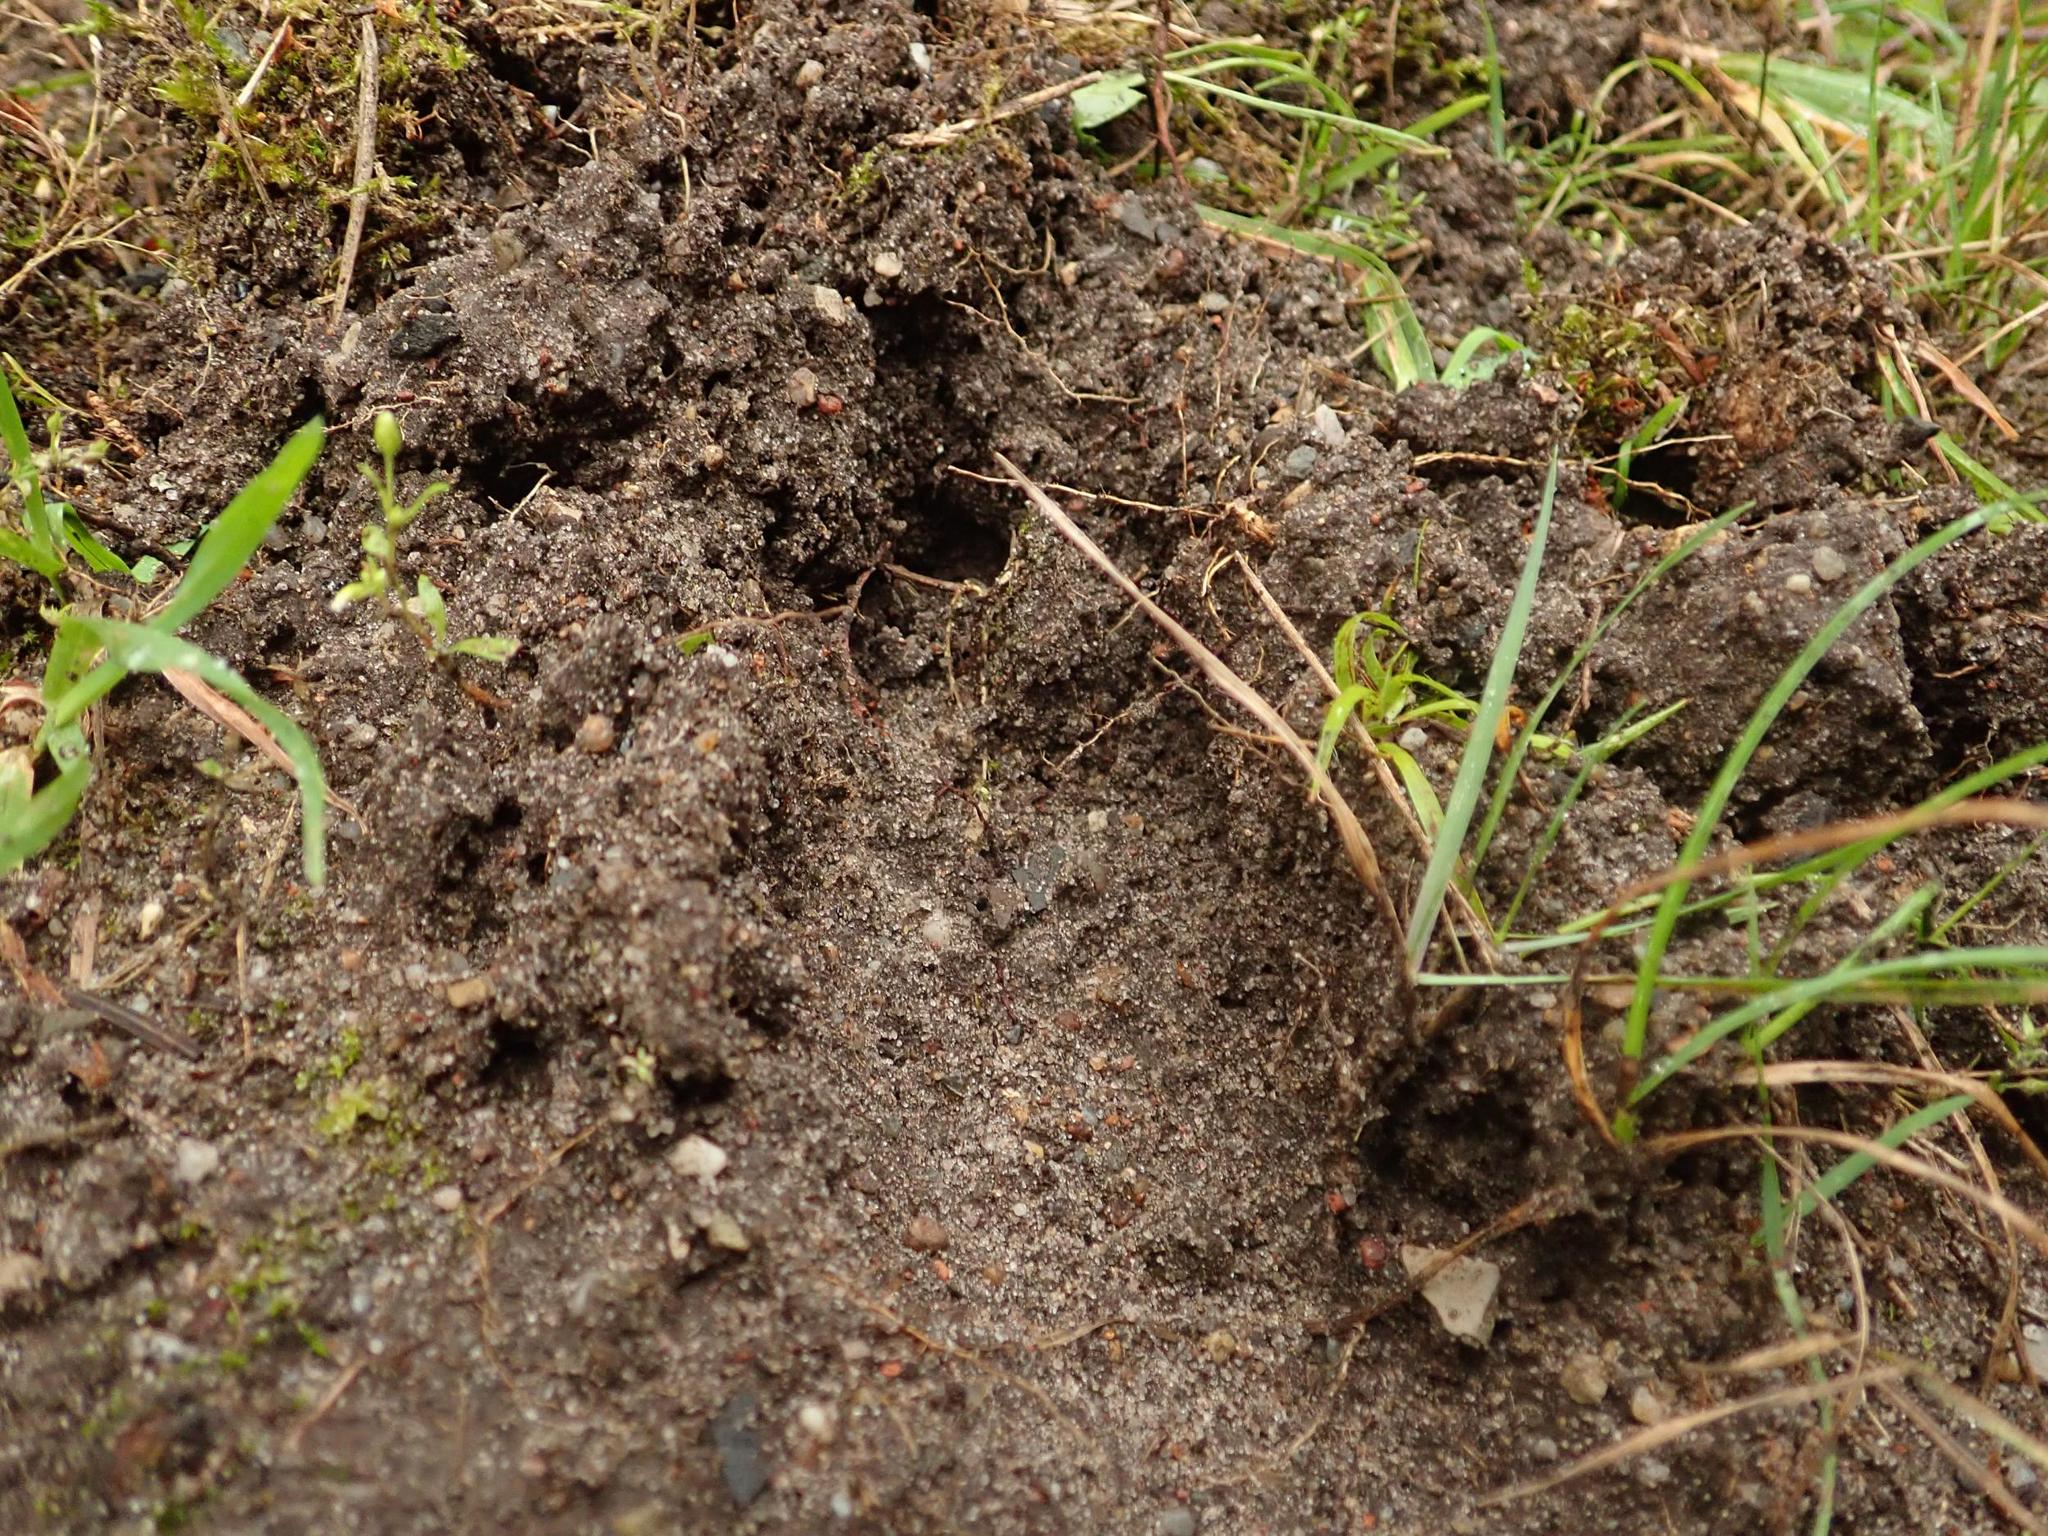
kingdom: Animalia
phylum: Chordata
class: Mammalia
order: Artiodactyla
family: Suidae
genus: Sus
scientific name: Sus scrofa
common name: Wild boar
